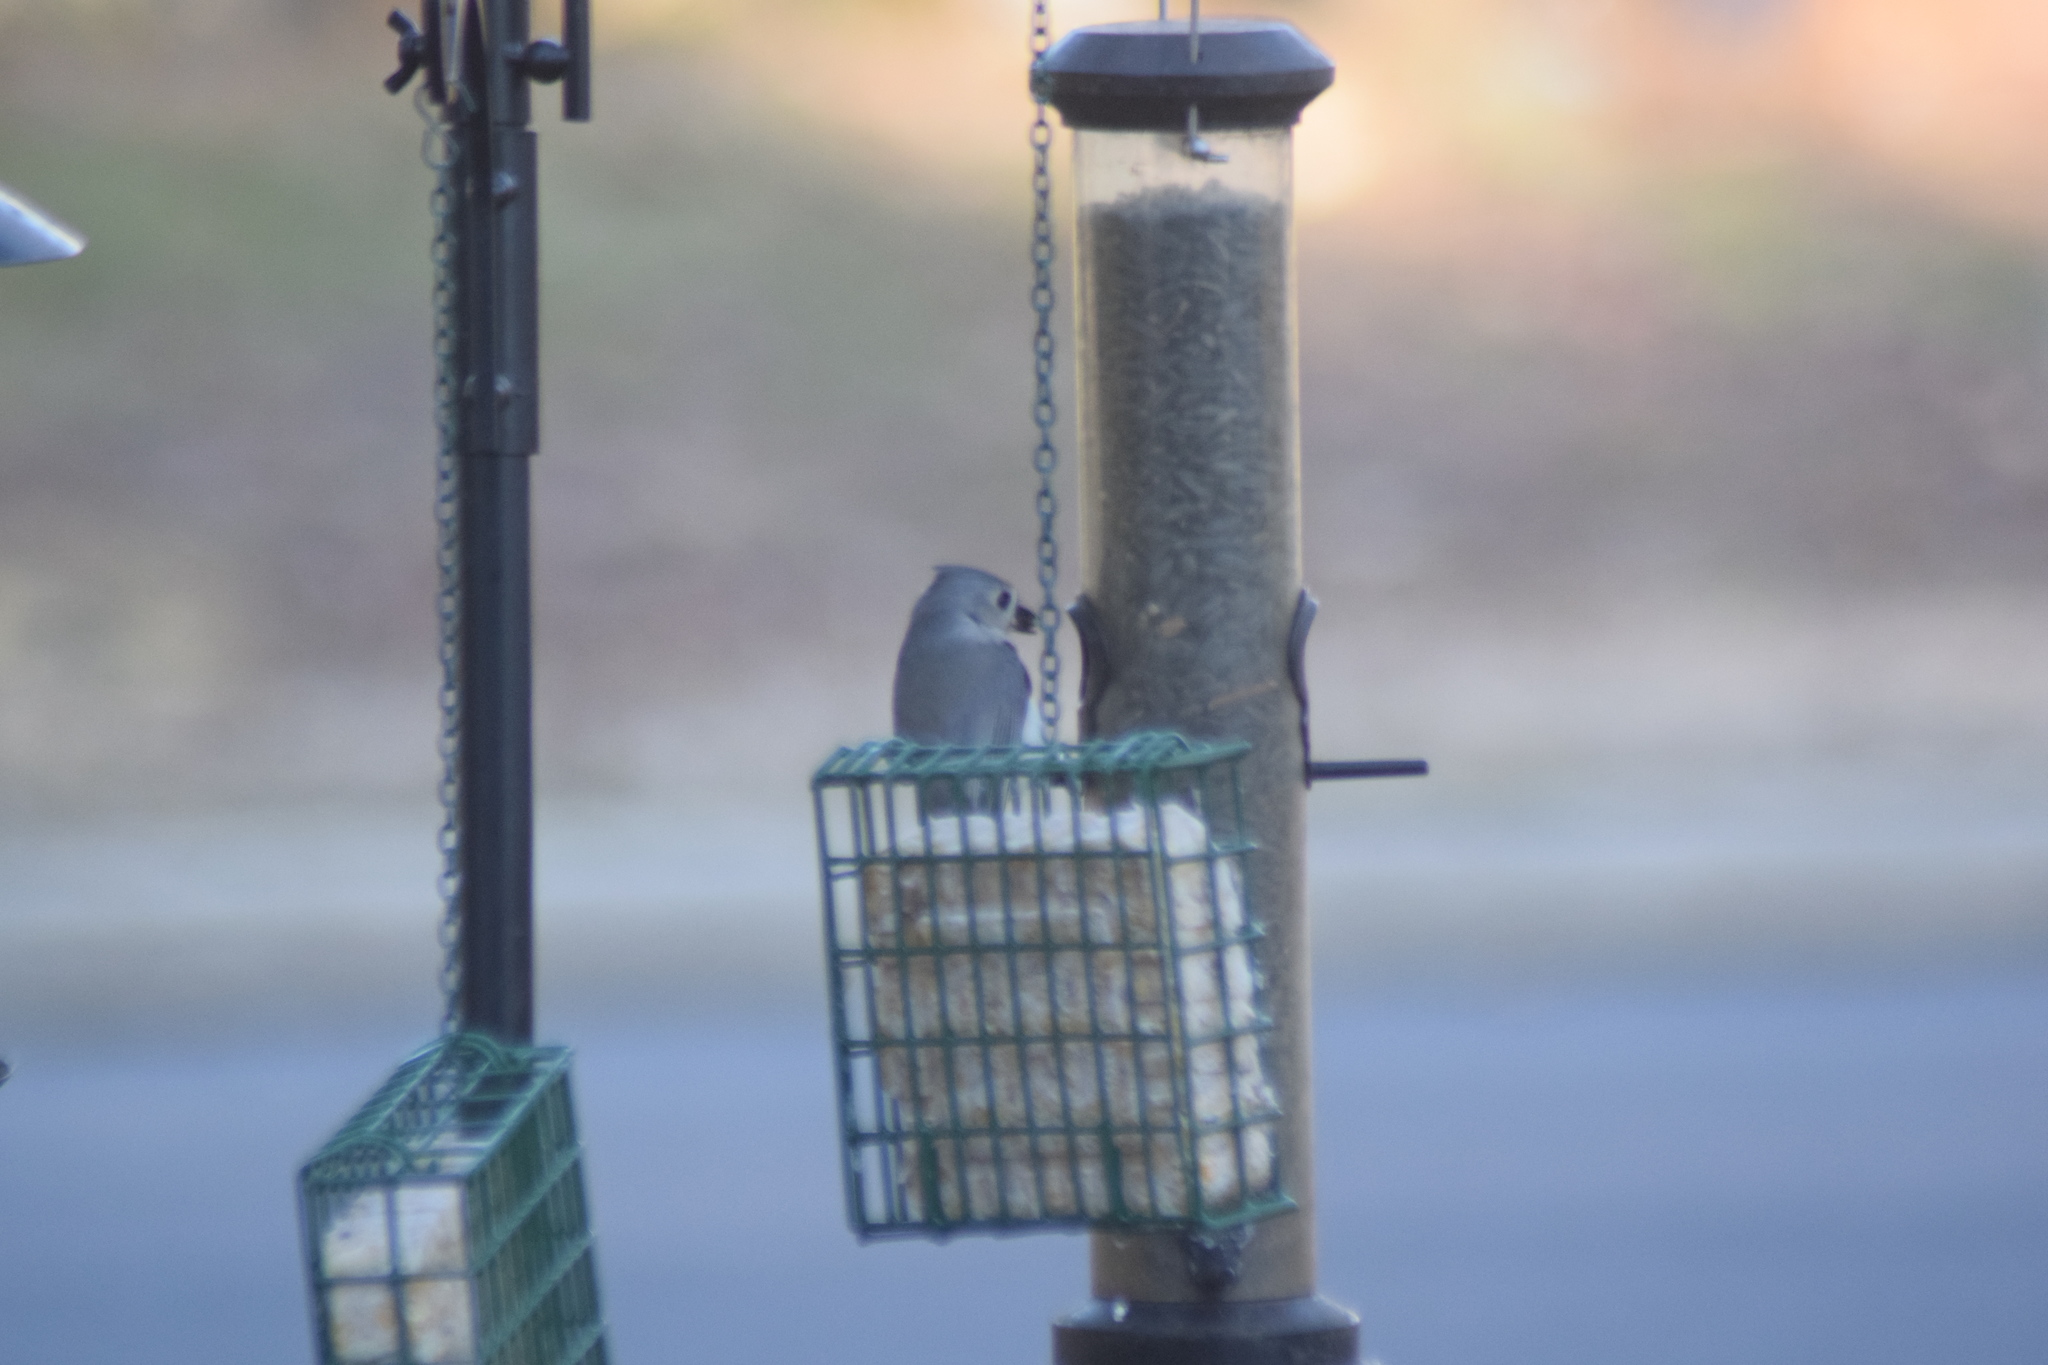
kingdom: Animalia
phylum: Chordata
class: Aves
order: Passeriformes
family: Paridae
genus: Baeolophus
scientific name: Baeolophus bicolor
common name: Tufted titmouse
